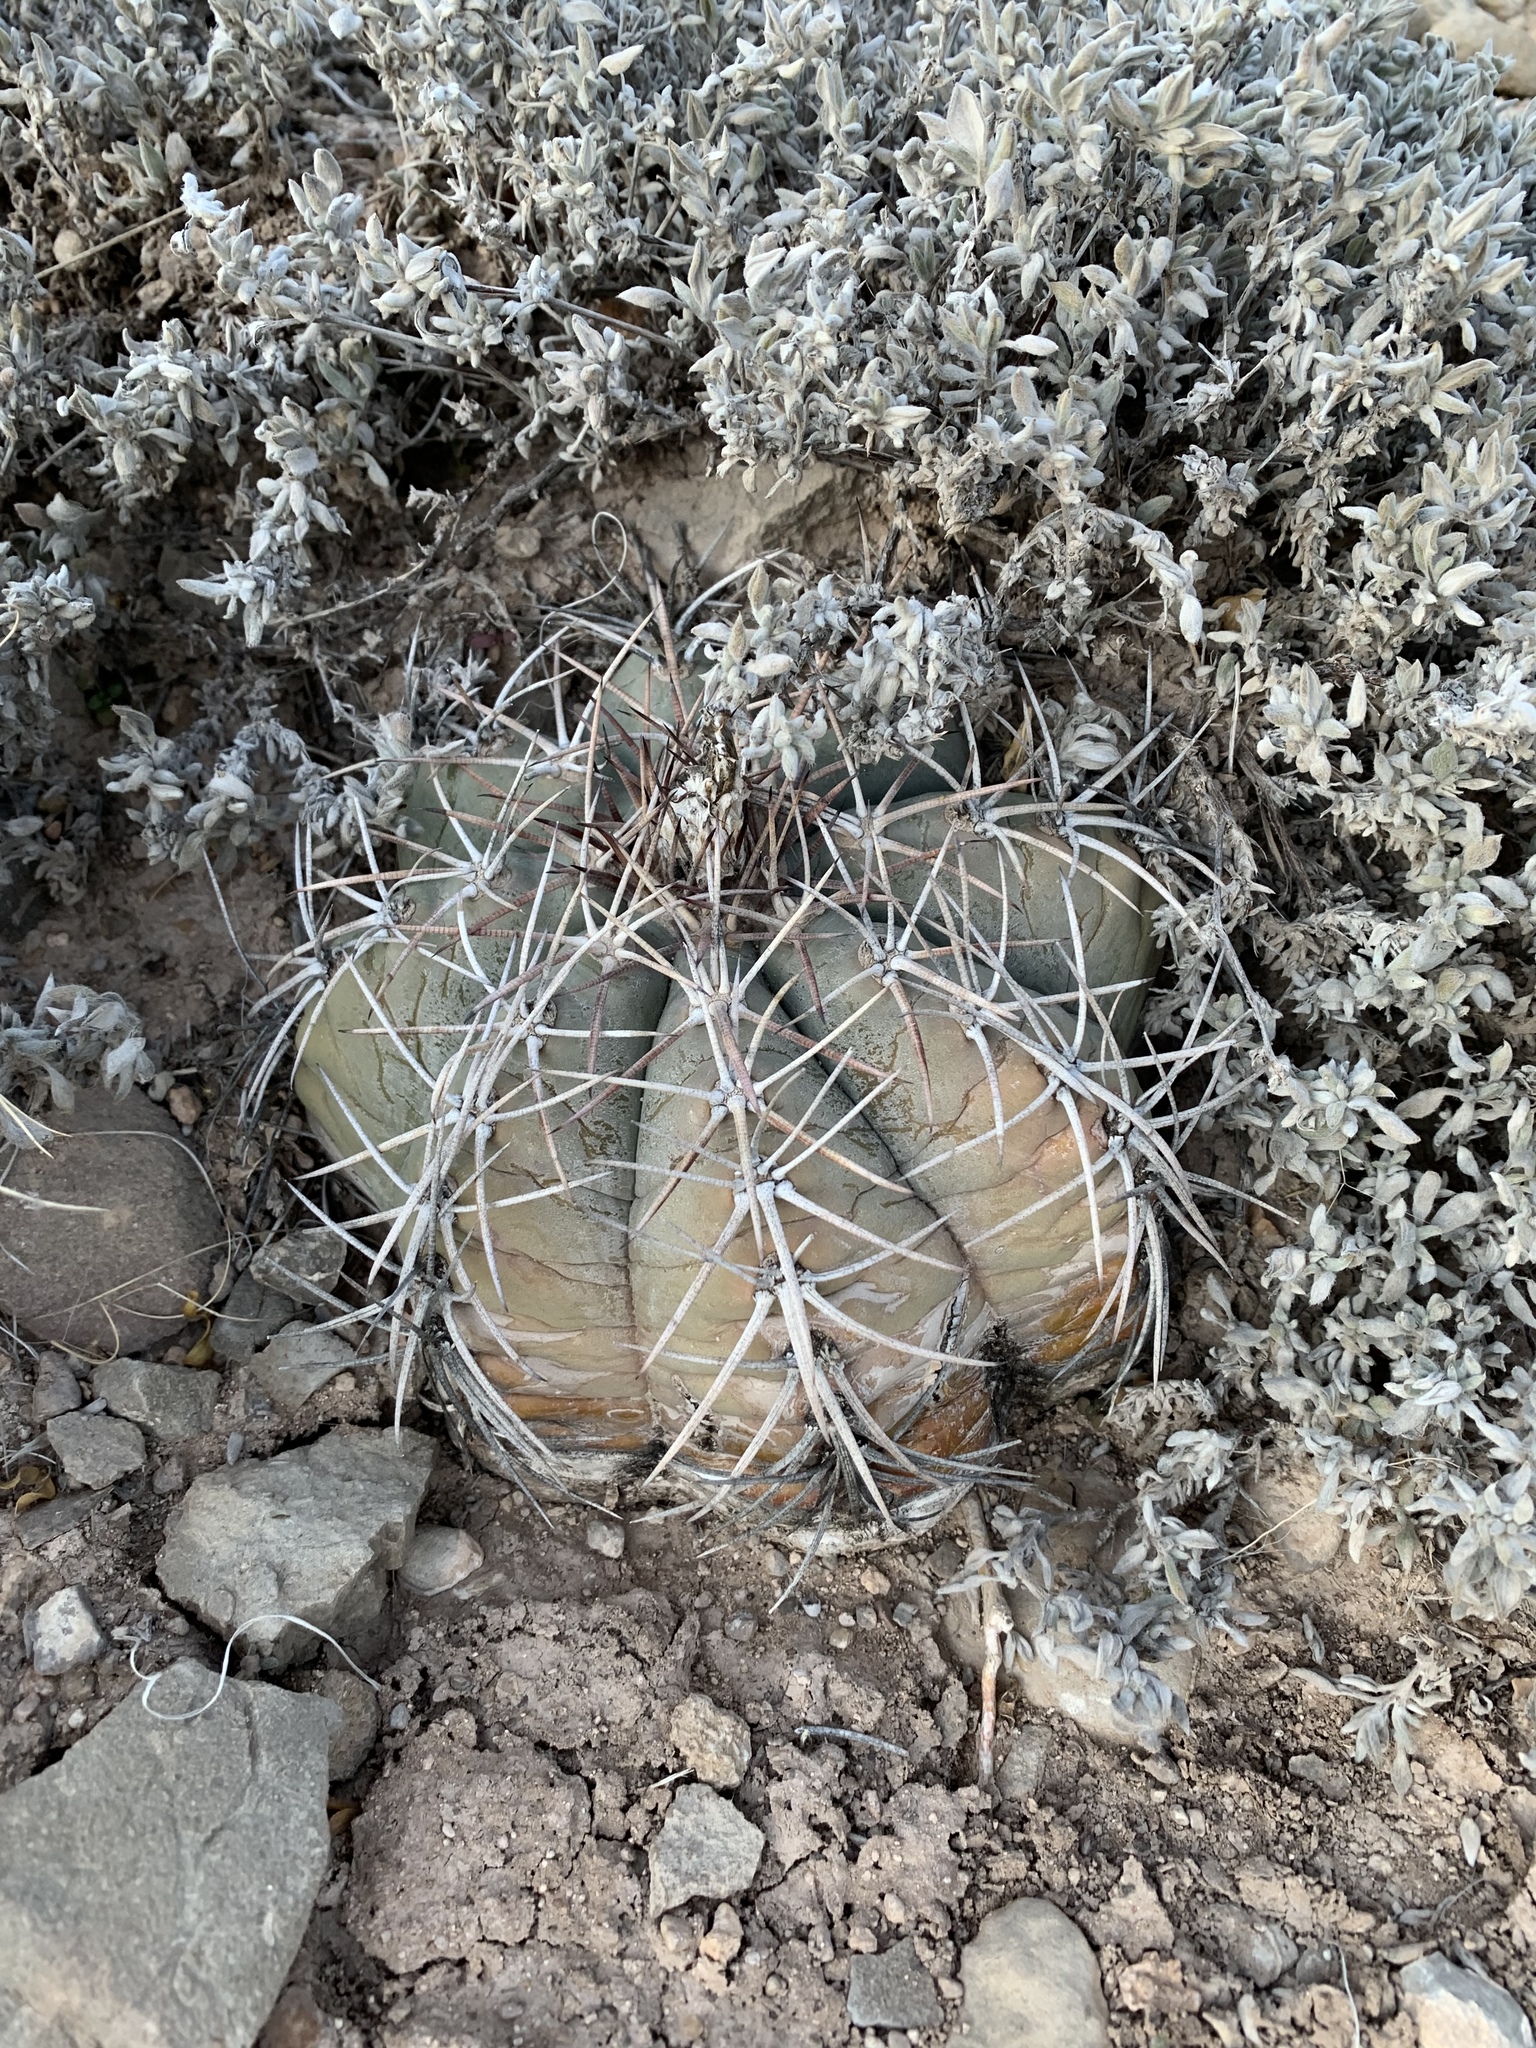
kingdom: Plantae
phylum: Tracheophyta
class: Magnoliopsida
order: Caryophyllales
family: Cactaceae
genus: Echinocactus
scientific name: Echinocactus horizonthalonius
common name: Devilshead
